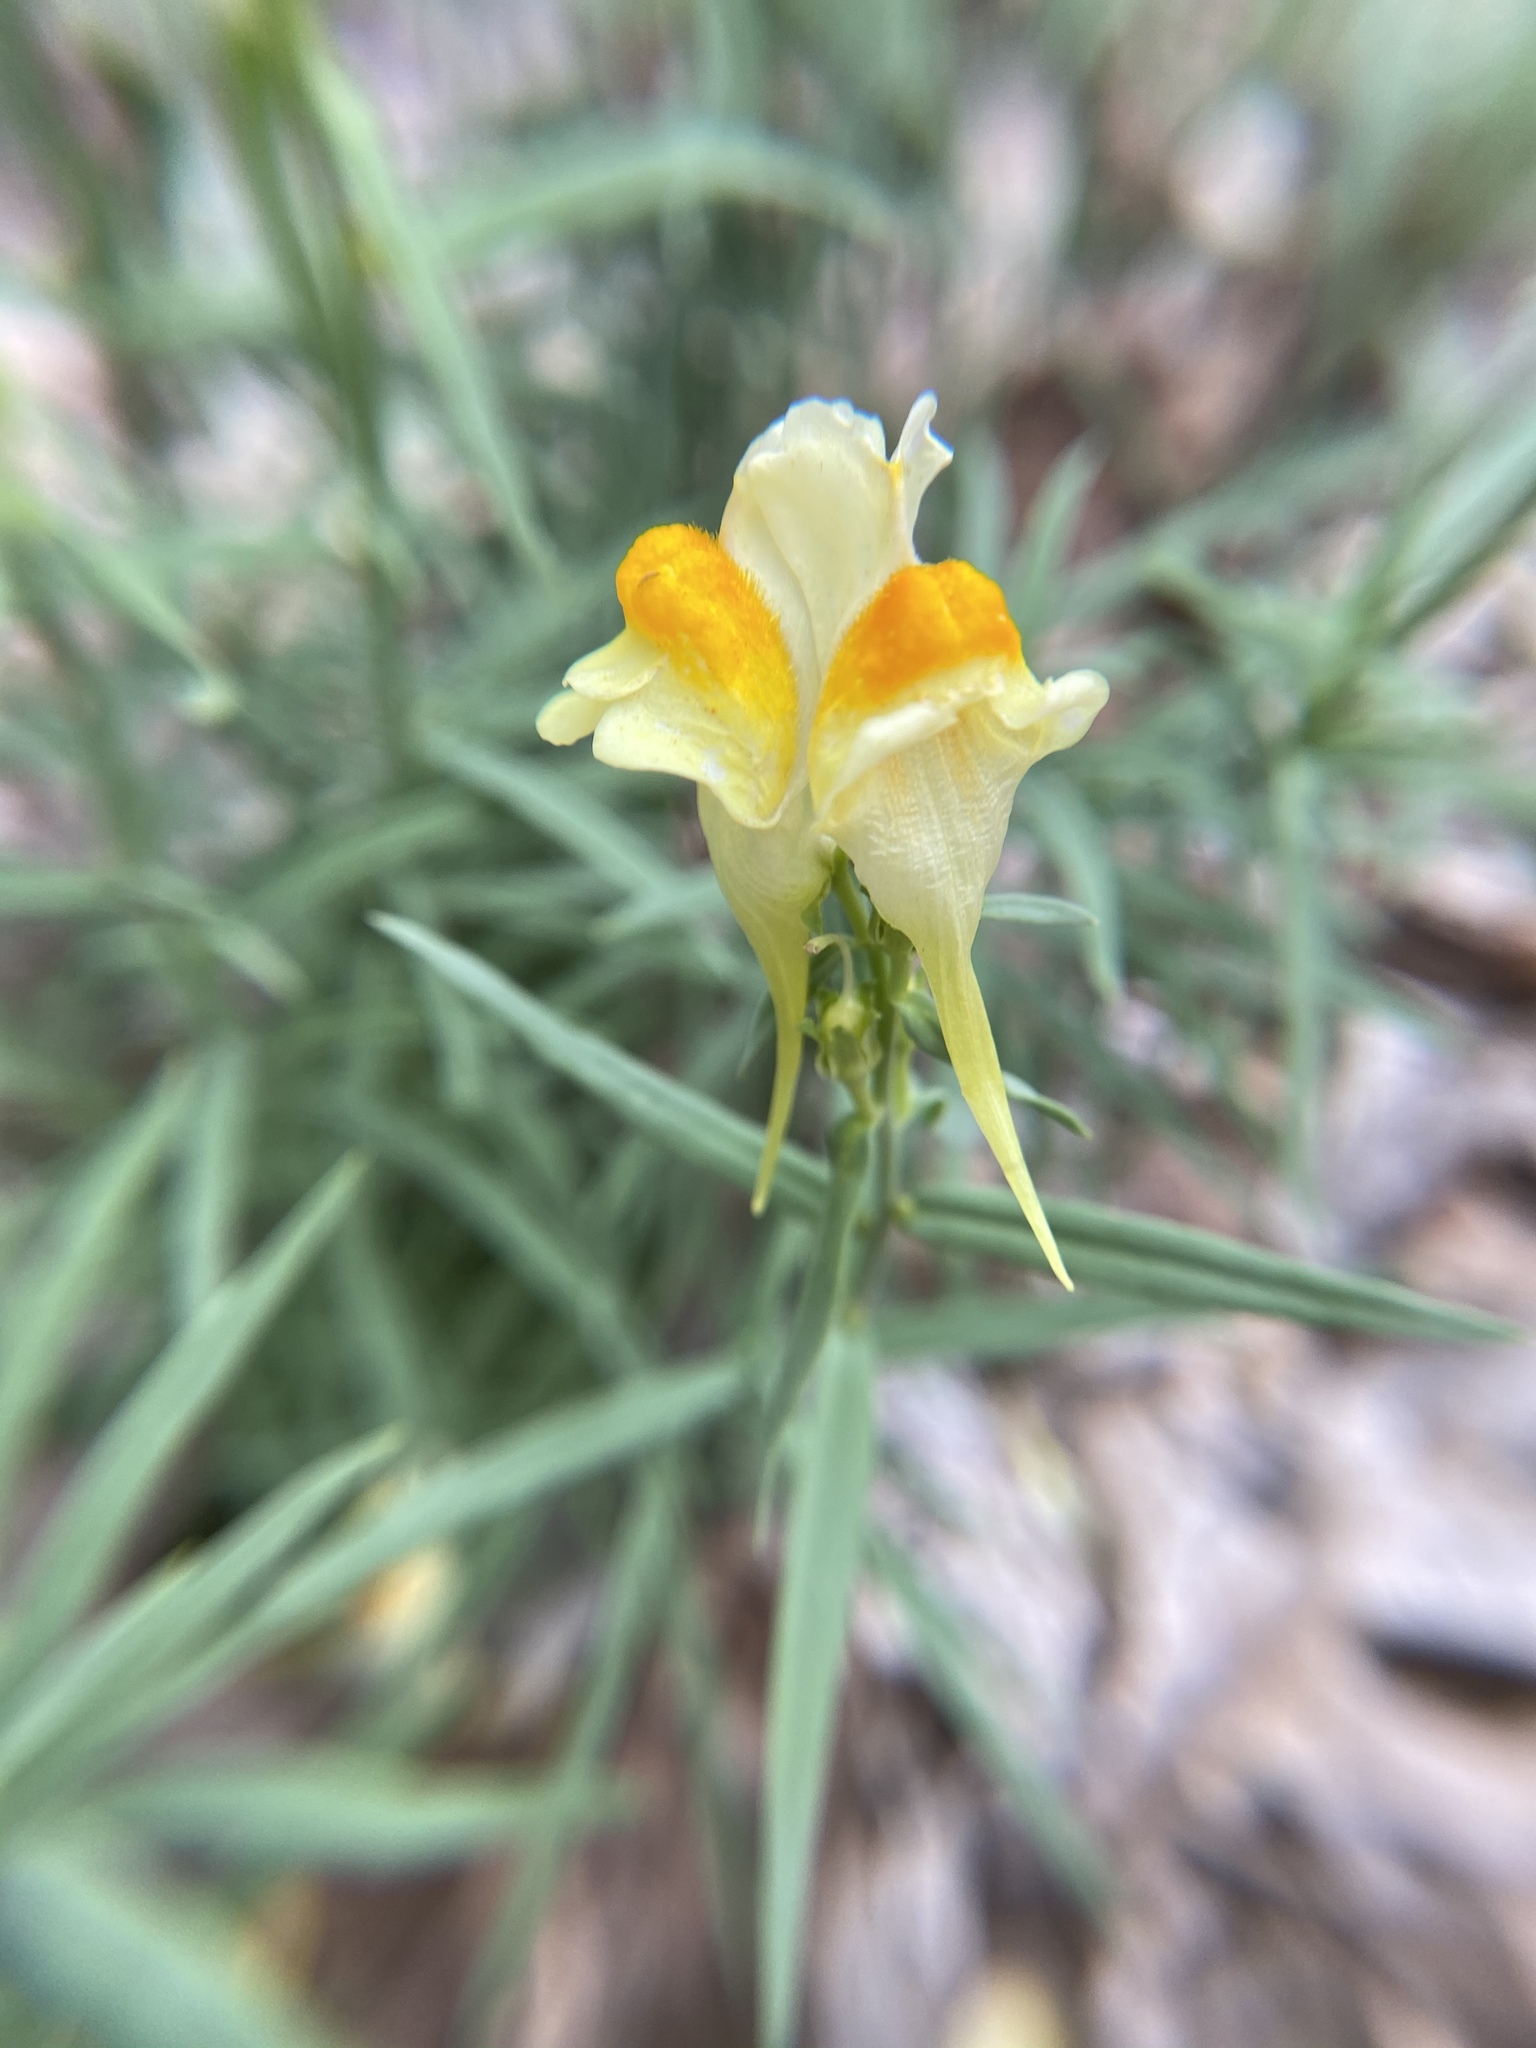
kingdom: Plantae
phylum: Tracheophyta
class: Magnoliopsida
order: Lamiales
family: Plantaginaceae
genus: Linaria
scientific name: Linaria vulgaris
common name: Butter and eggs
